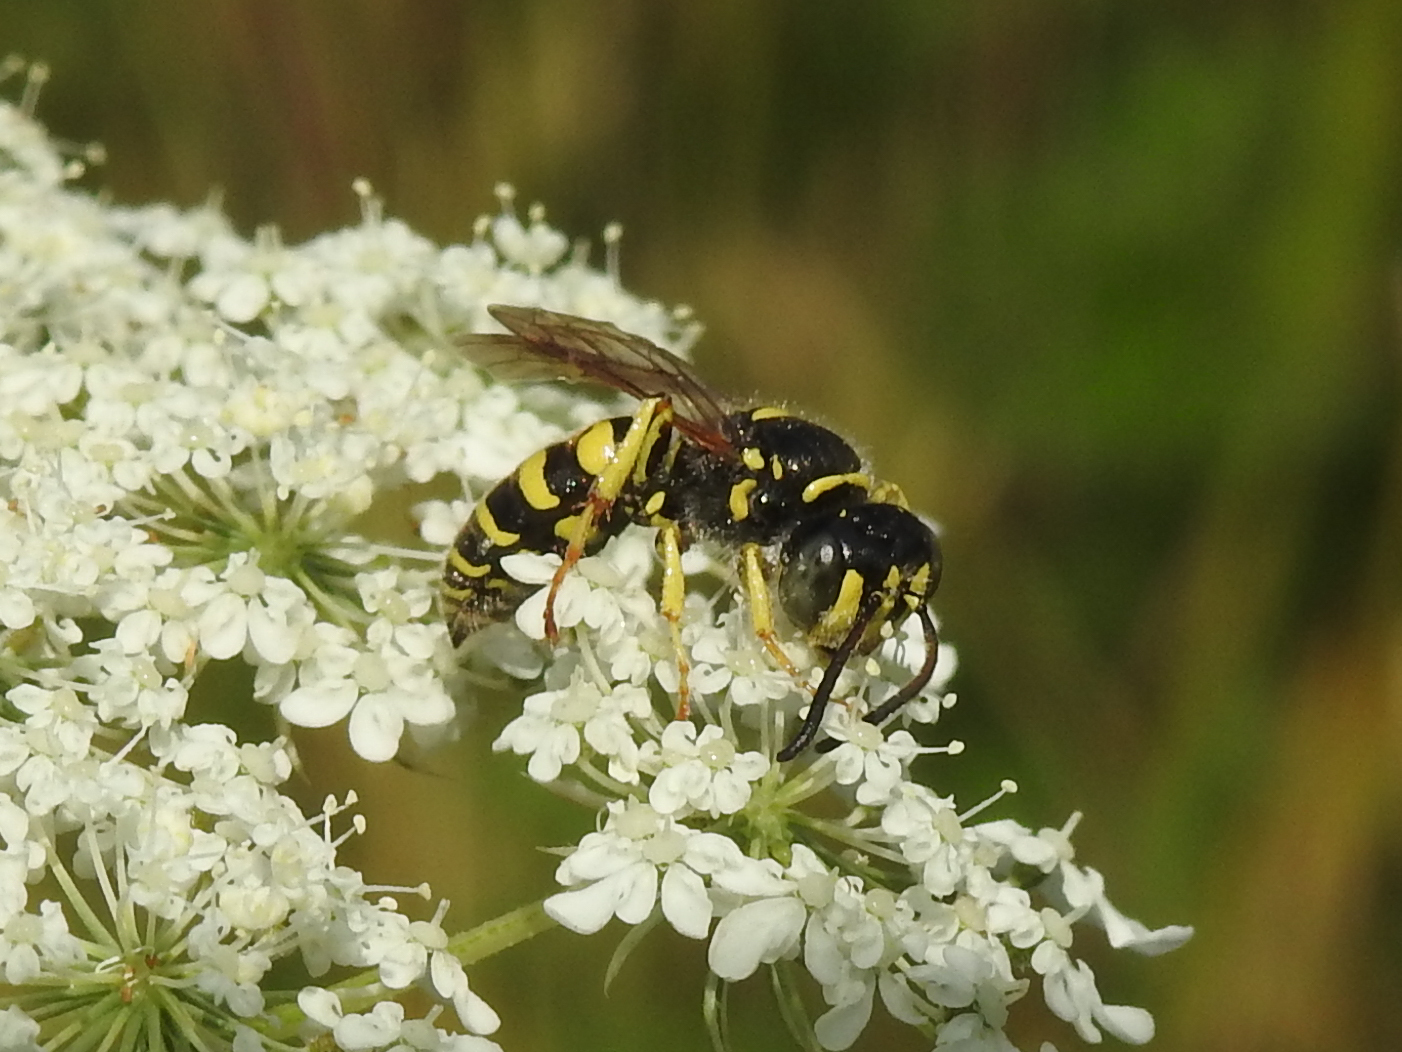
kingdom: Animalia
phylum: Arthropoda
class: Insecta
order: Hymenoptera
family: Crabronidae
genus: Aphilanthops
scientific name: Aphilanthops frigidus
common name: Queen ant kidnapper
